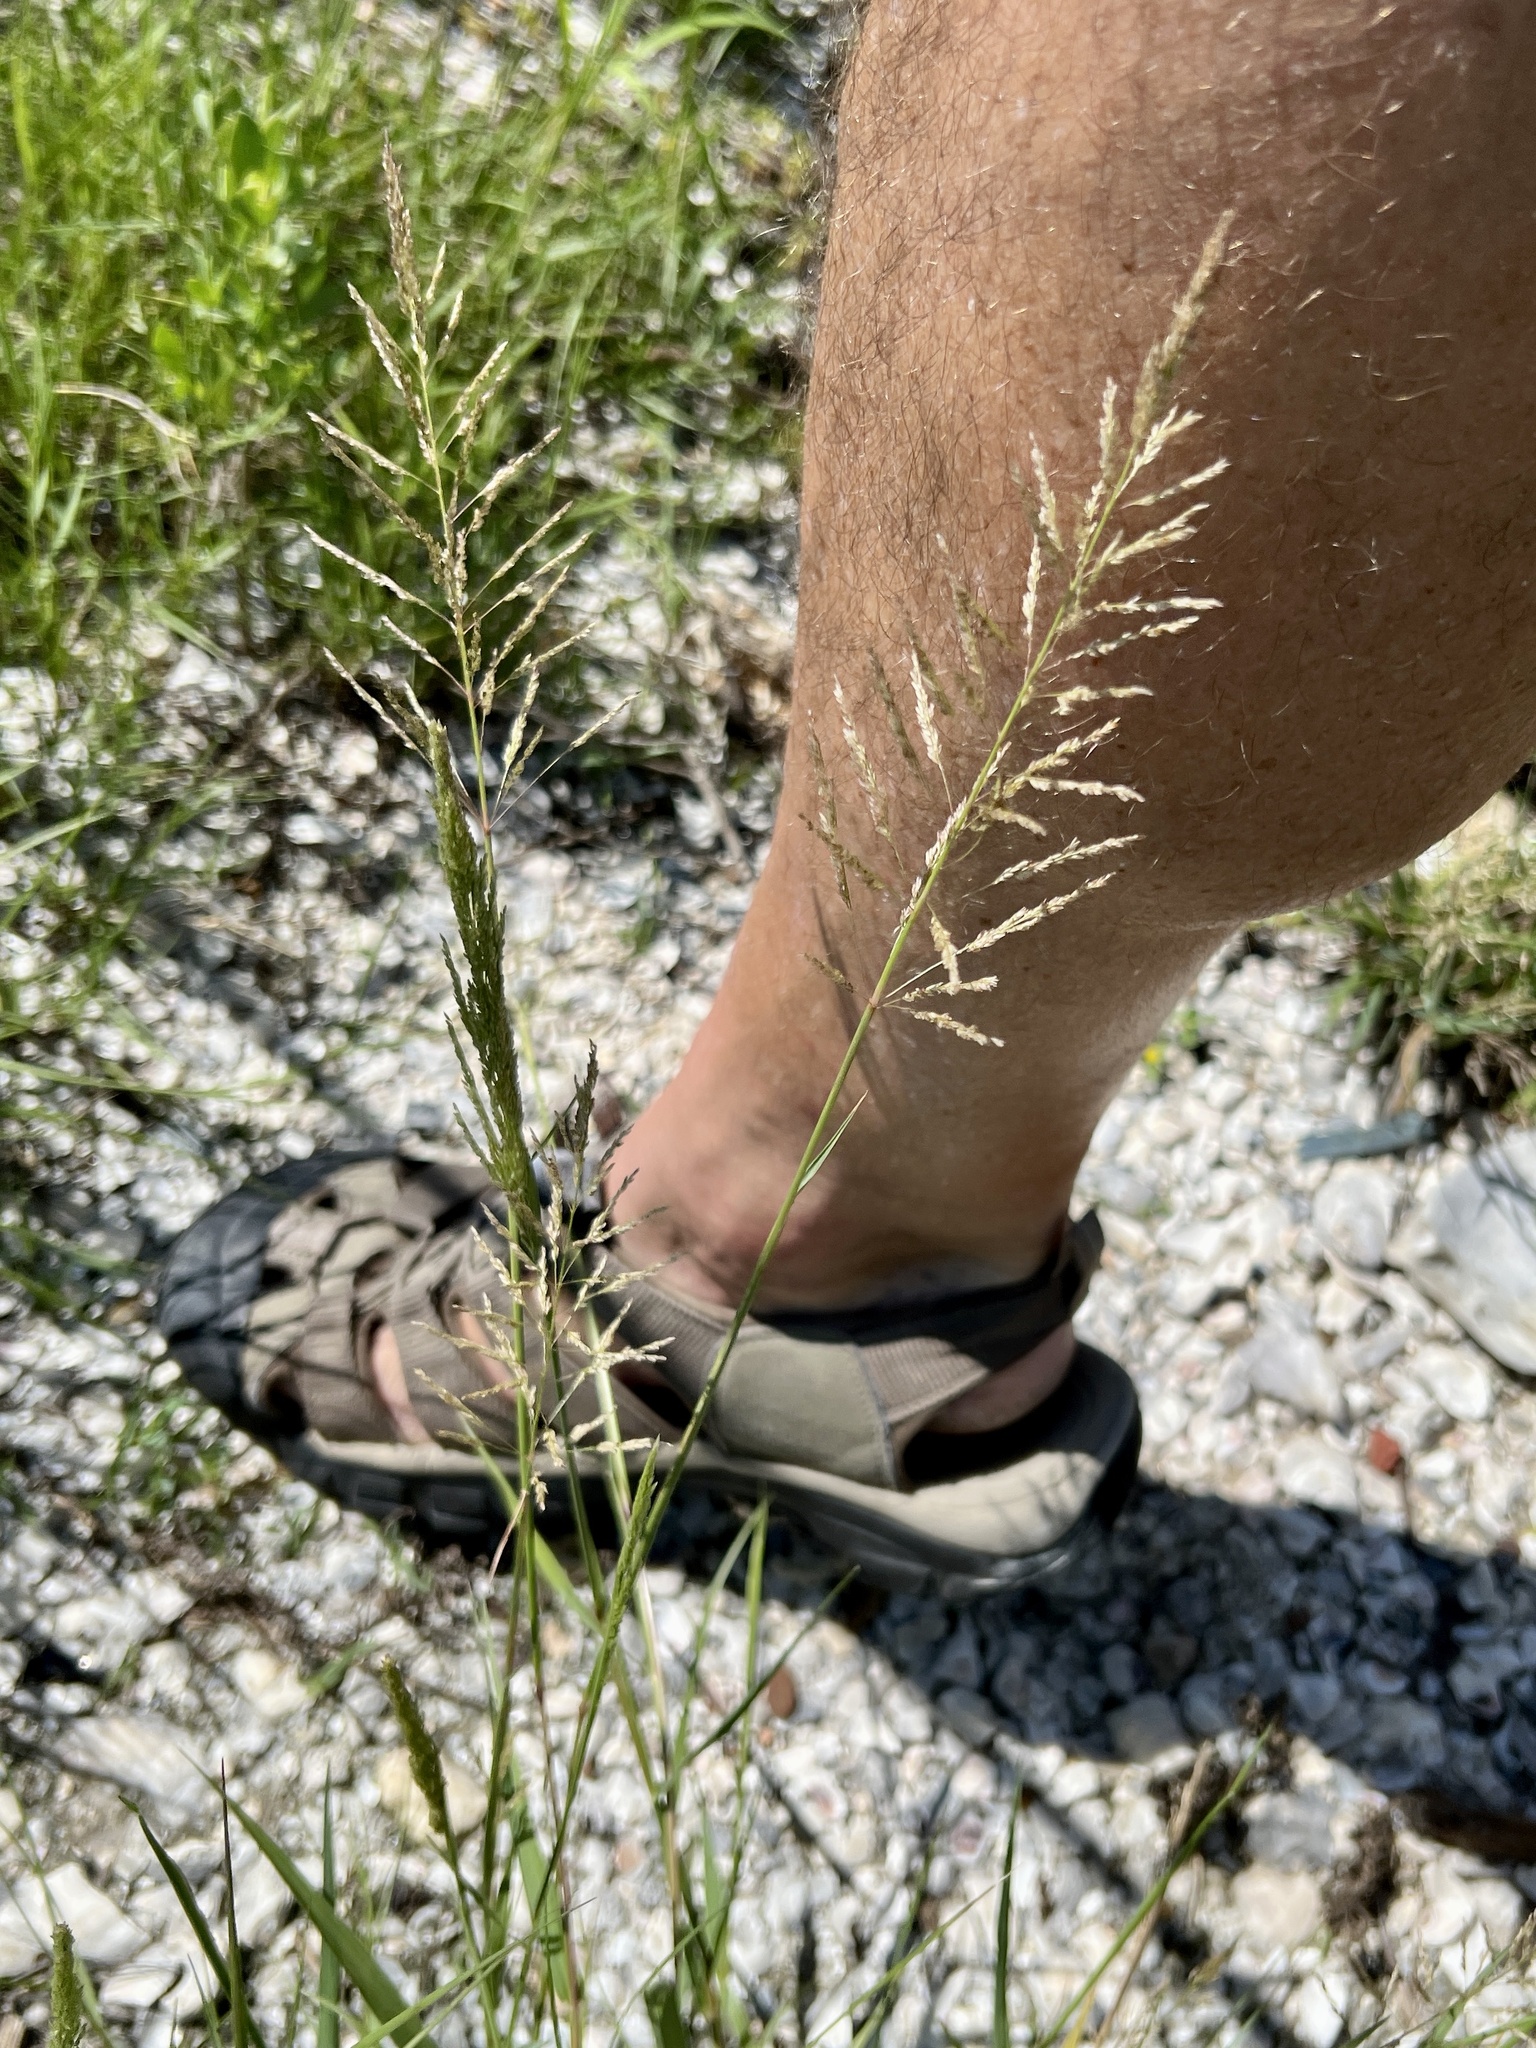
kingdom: Plantae
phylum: Tracheophyta
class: Liliopsida
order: Poales
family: Poaceae
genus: Sporobolus
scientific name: Sporobolus pyramidatus
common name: Whorled dropseed
